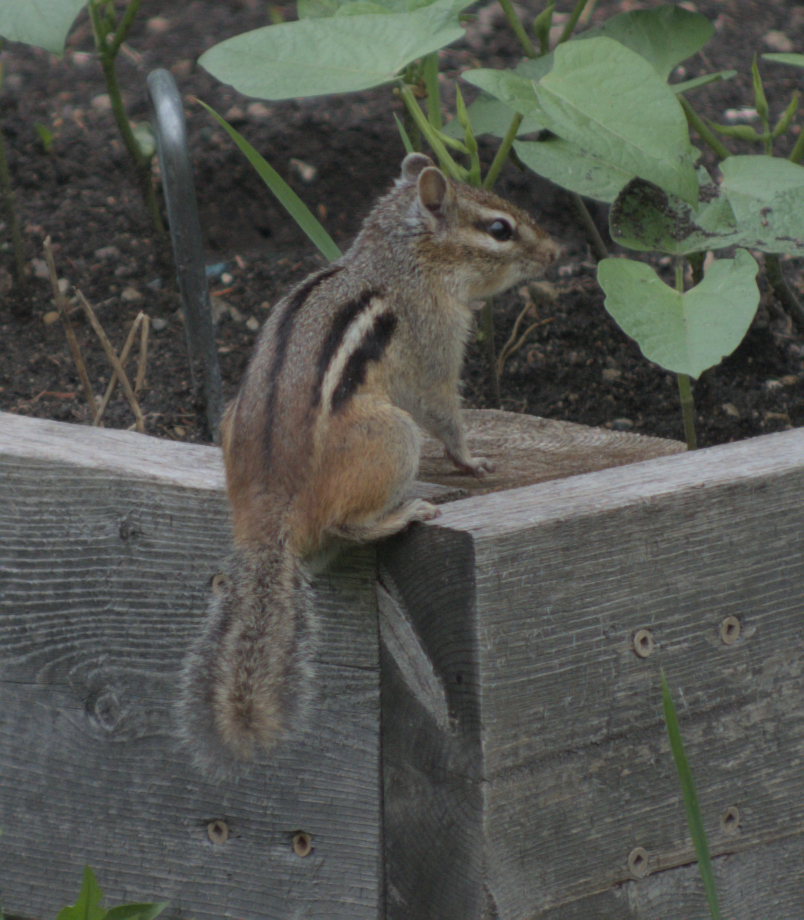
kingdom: Animalia
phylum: Chordata
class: Mammalia
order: Rodentia
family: Sciuridae
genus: Tamias
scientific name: Tamias striatus
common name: Eastern chipmunk
